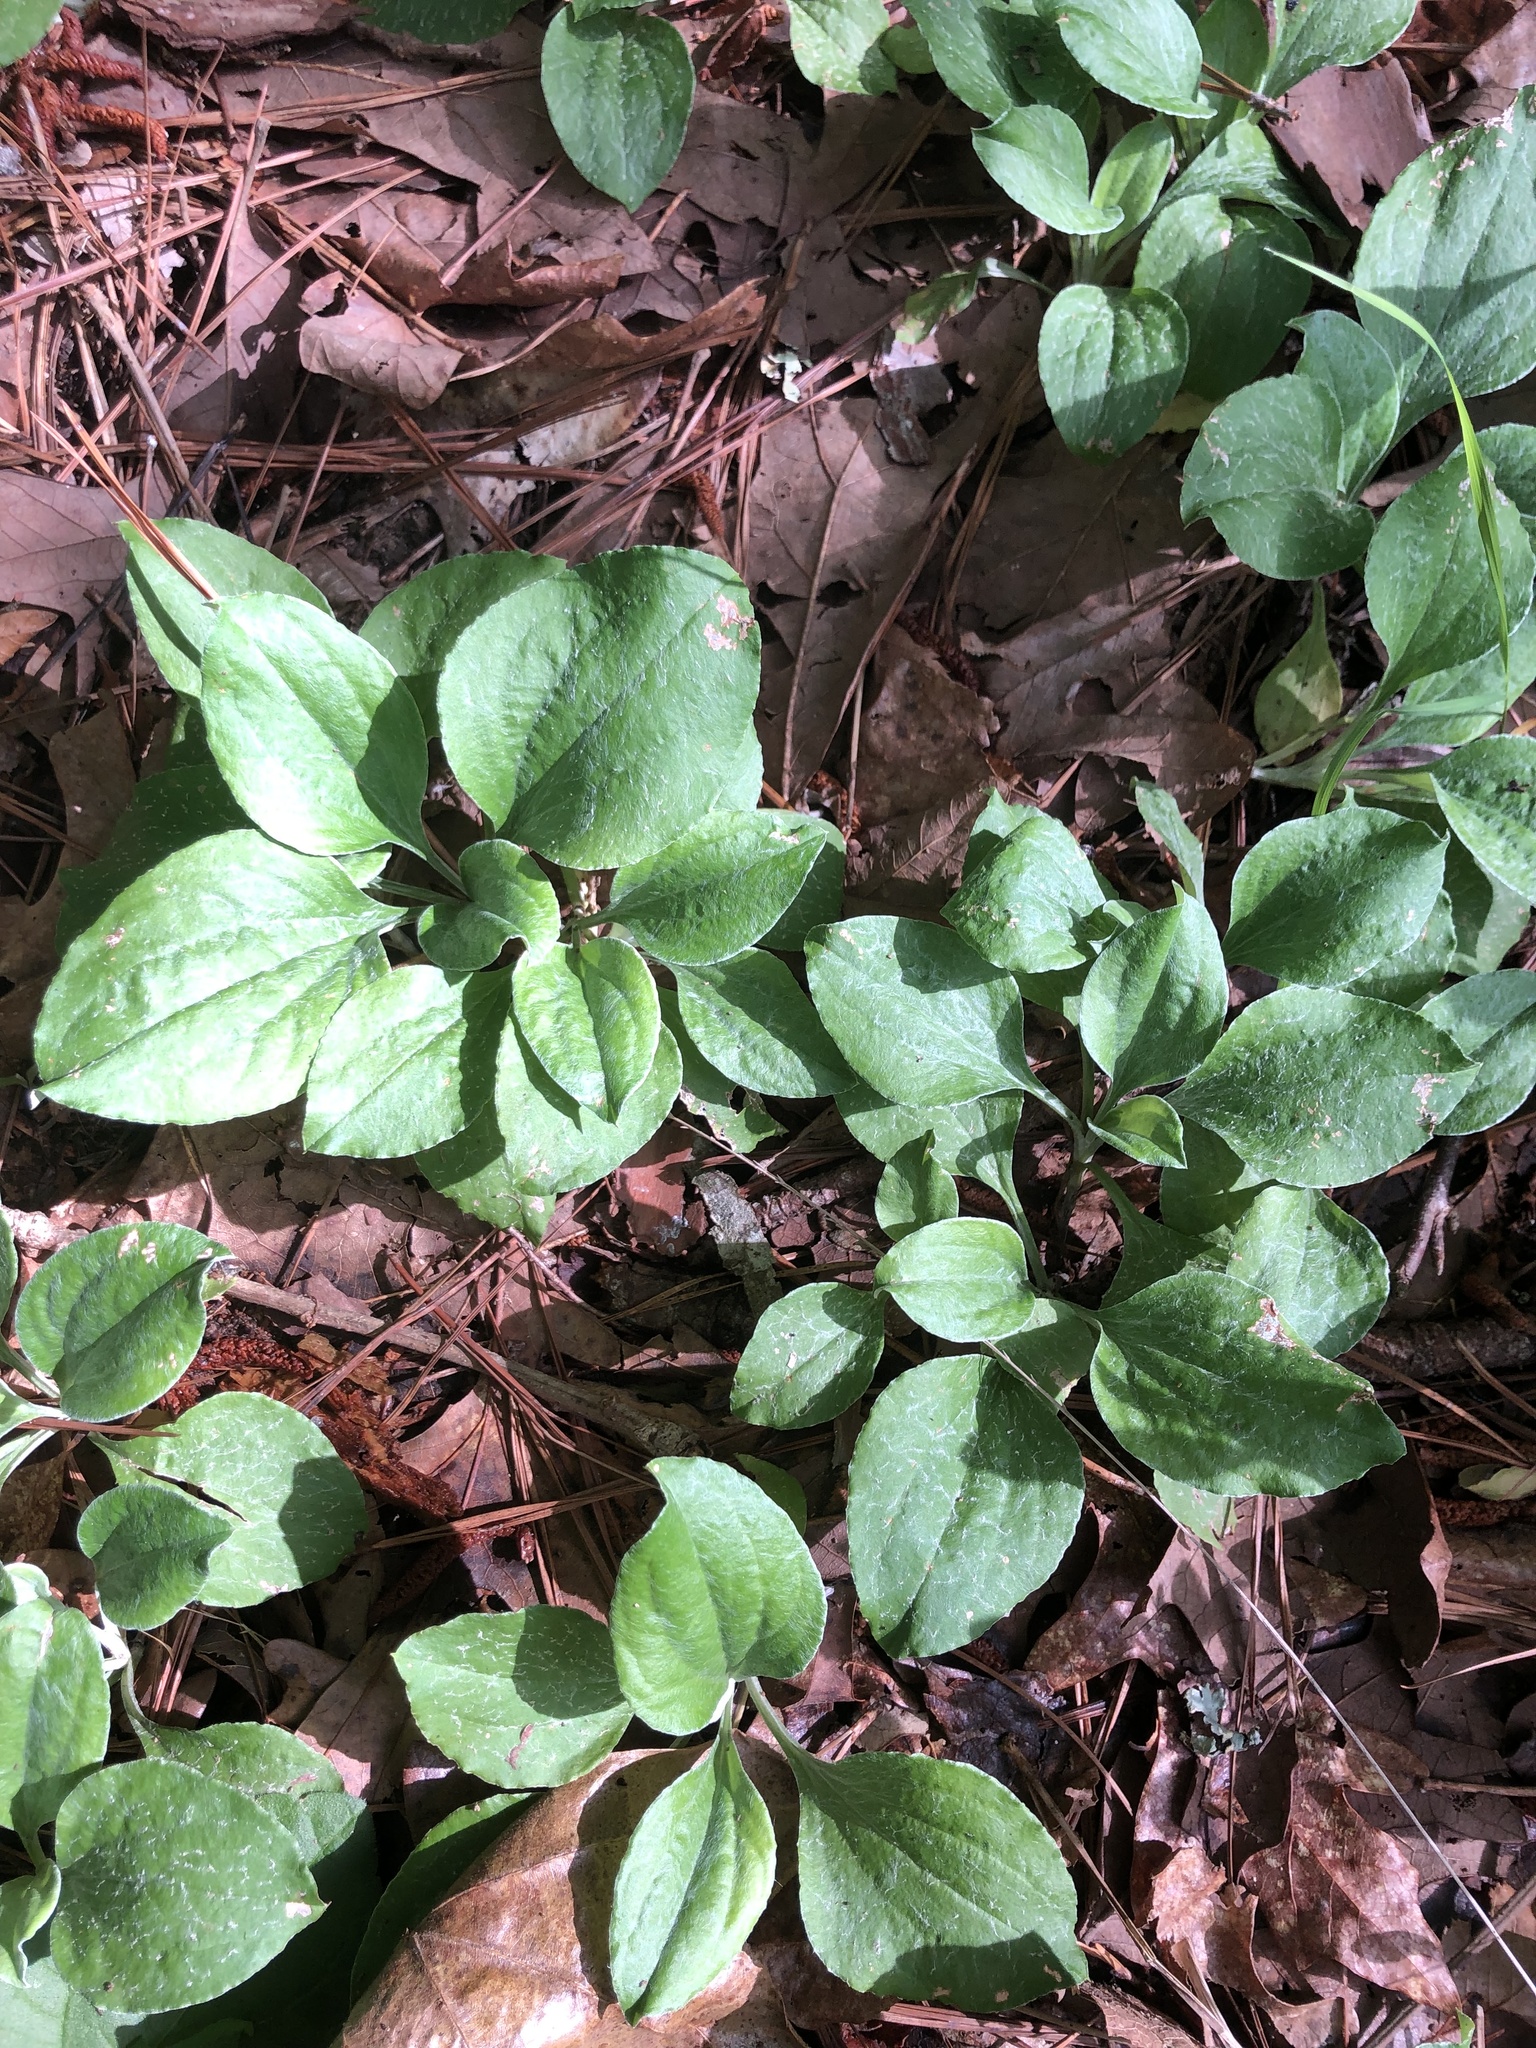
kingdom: Plantae
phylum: Tracheophyta
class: Magnoliopsida
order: Asterales
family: Asteraceae
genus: Antennaria
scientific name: Antennaria plantaginifolia
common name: Plantain-leaved pussytoes
